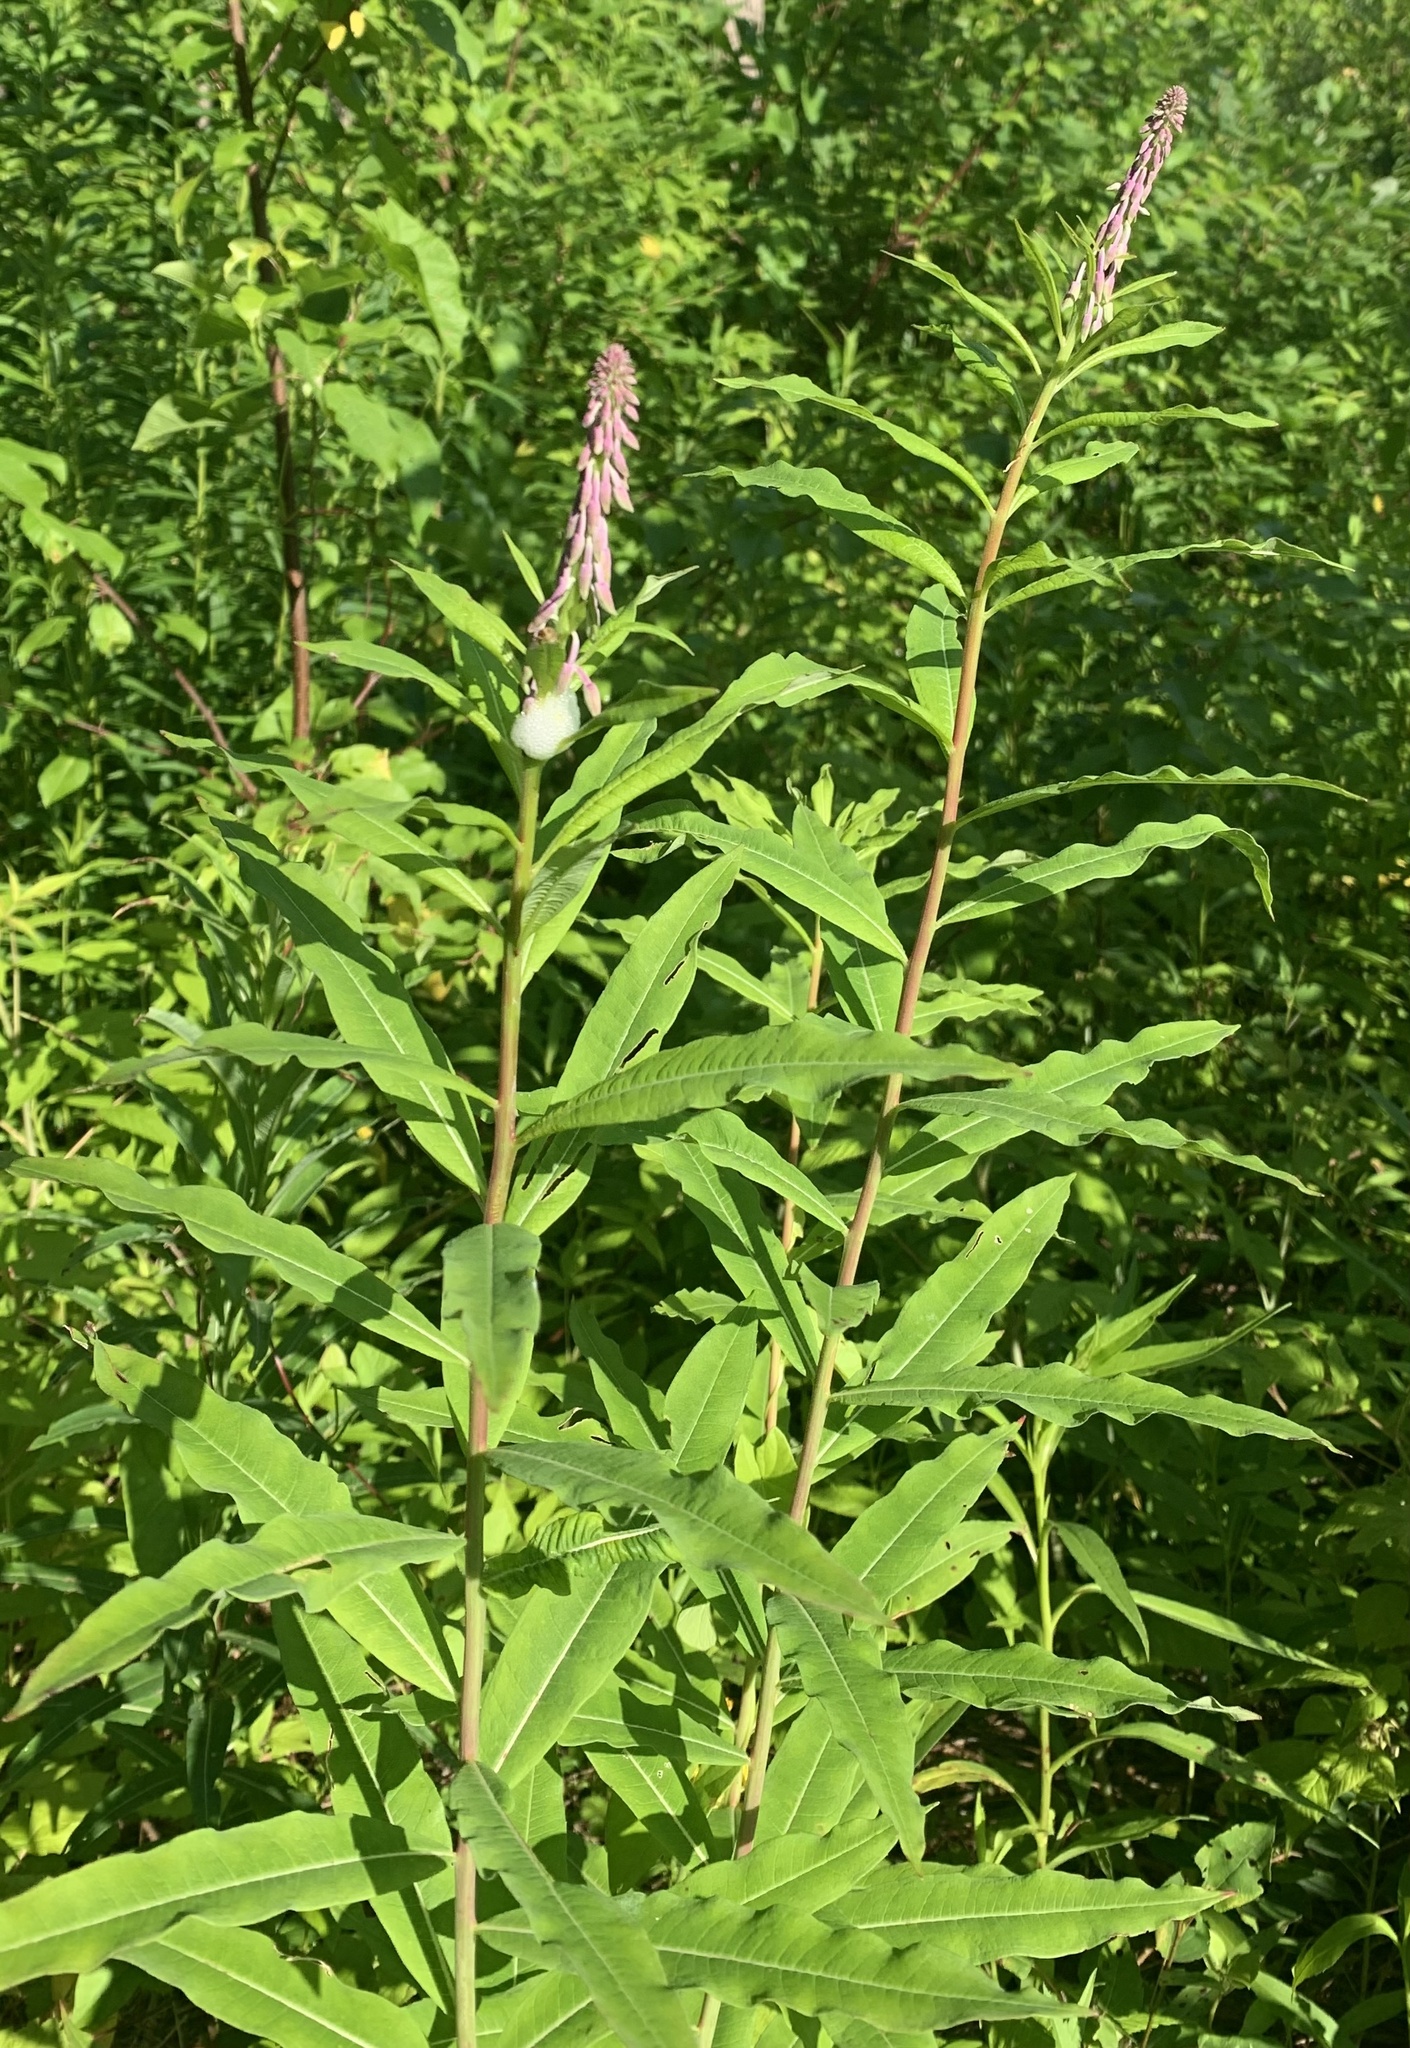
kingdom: Plantae
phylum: Tracheophyta
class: Magnoliopsida
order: Myrtales
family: Onagraceae
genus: Chamaenerion
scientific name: Chamaenerion angustifolium
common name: Fireweed
